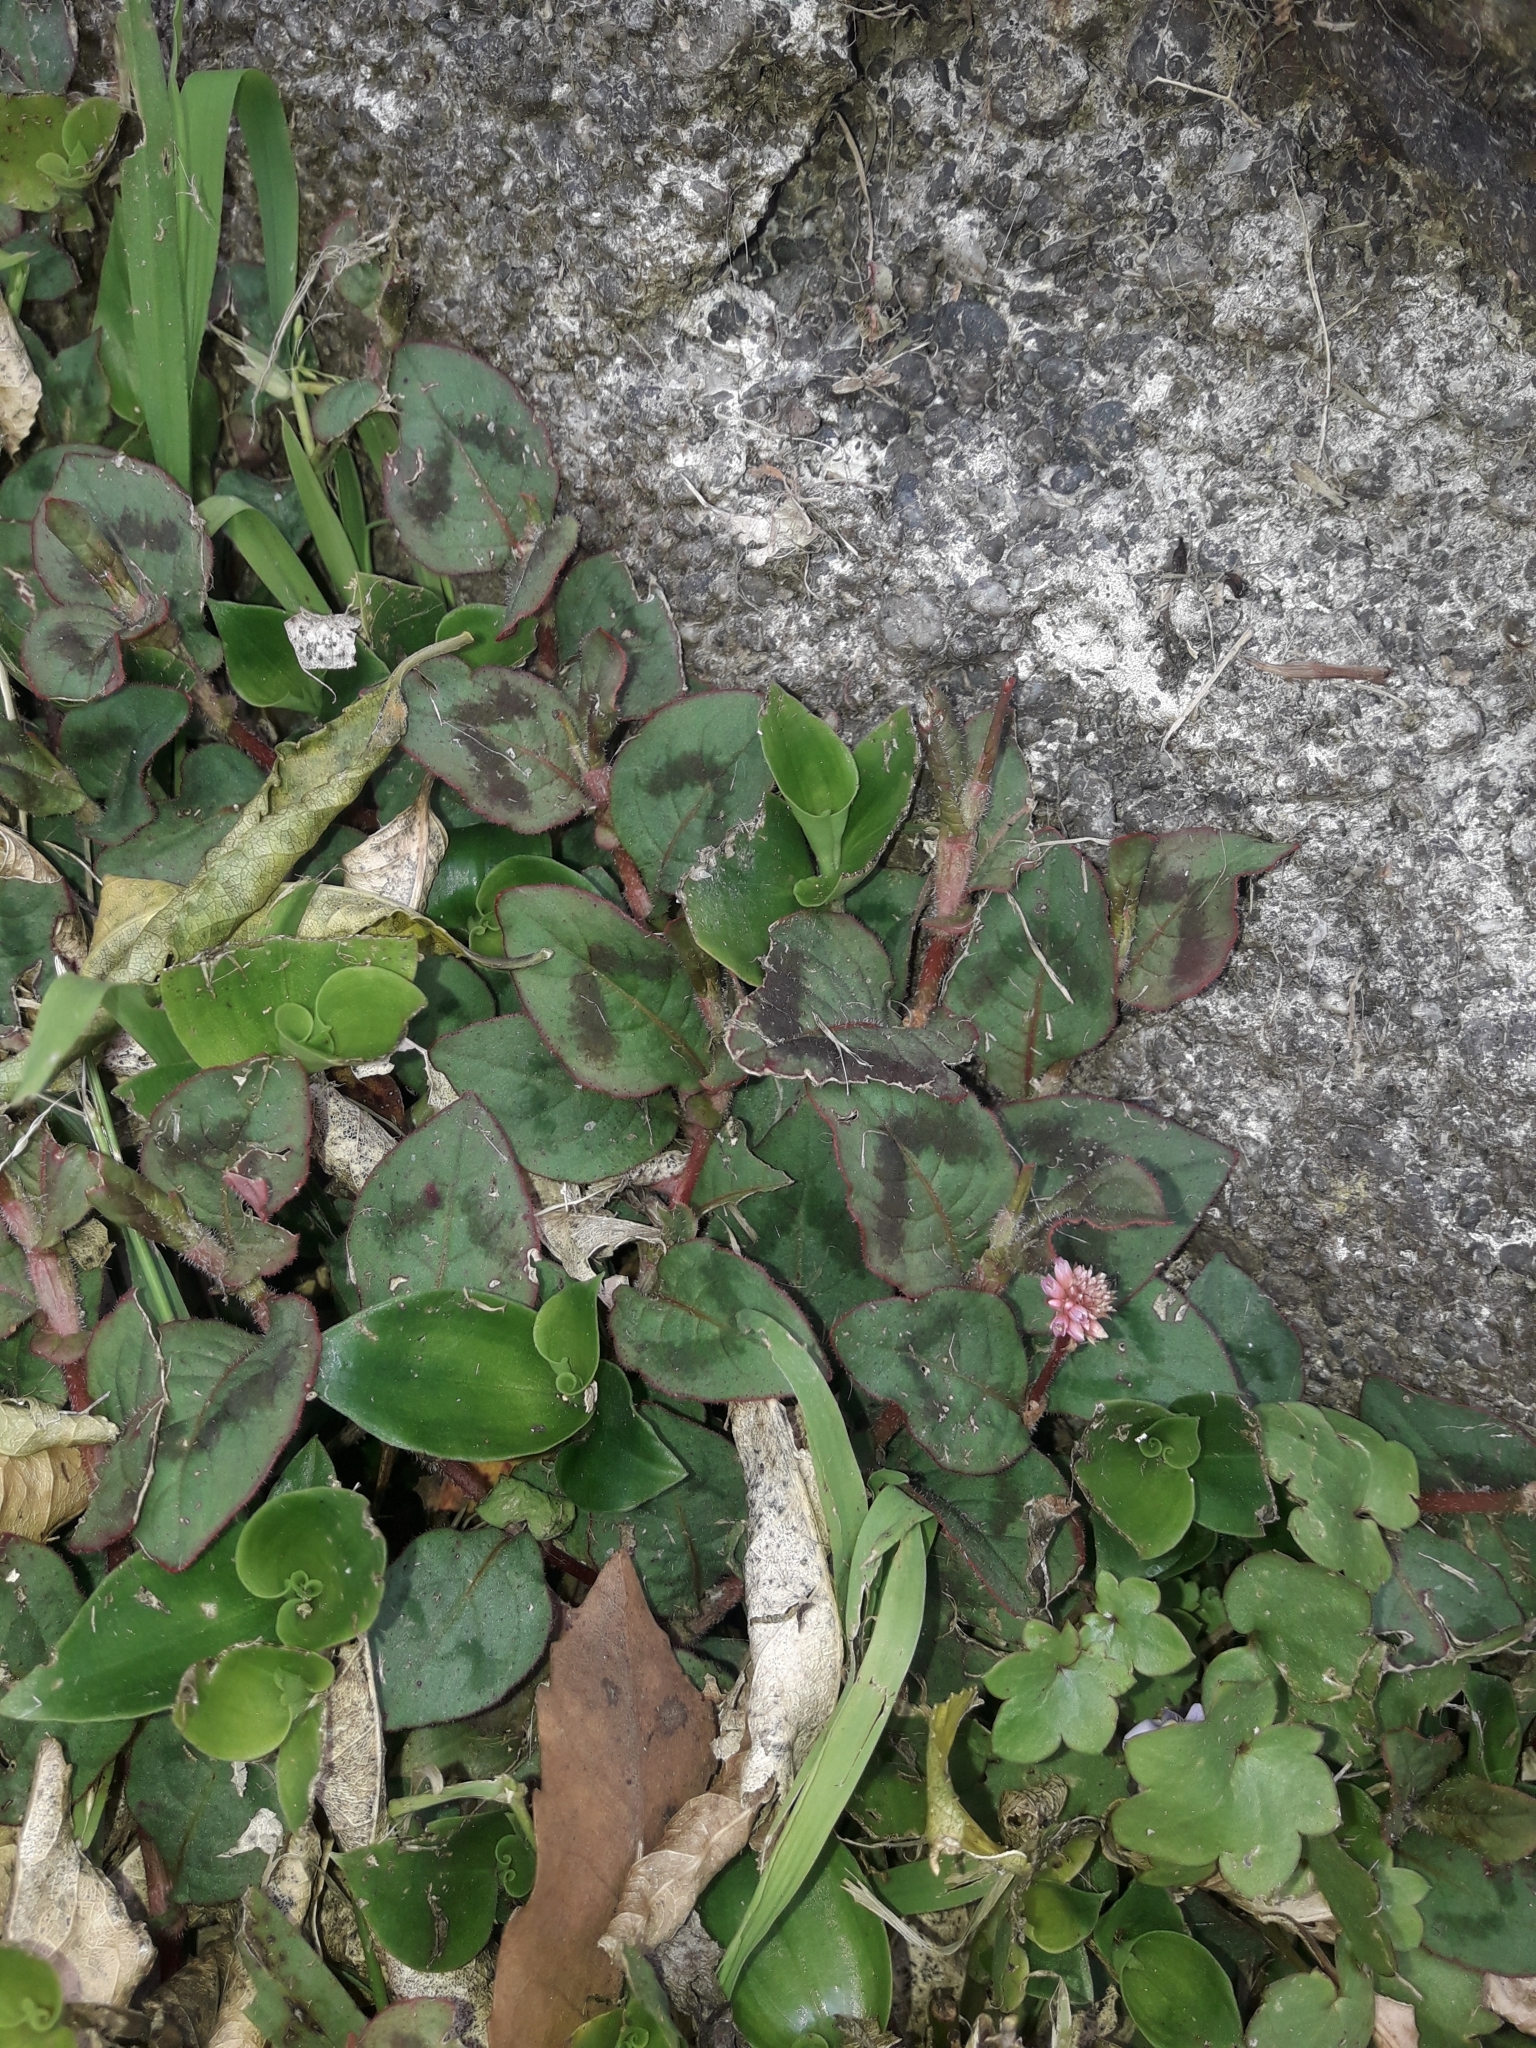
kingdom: Plantae
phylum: Tracheophyta
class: Magnoliopsida
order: Caryophyllales
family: Polygonaceae
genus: Persicaria
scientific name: Persicaria capitata
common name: Pinkhead smartweed
